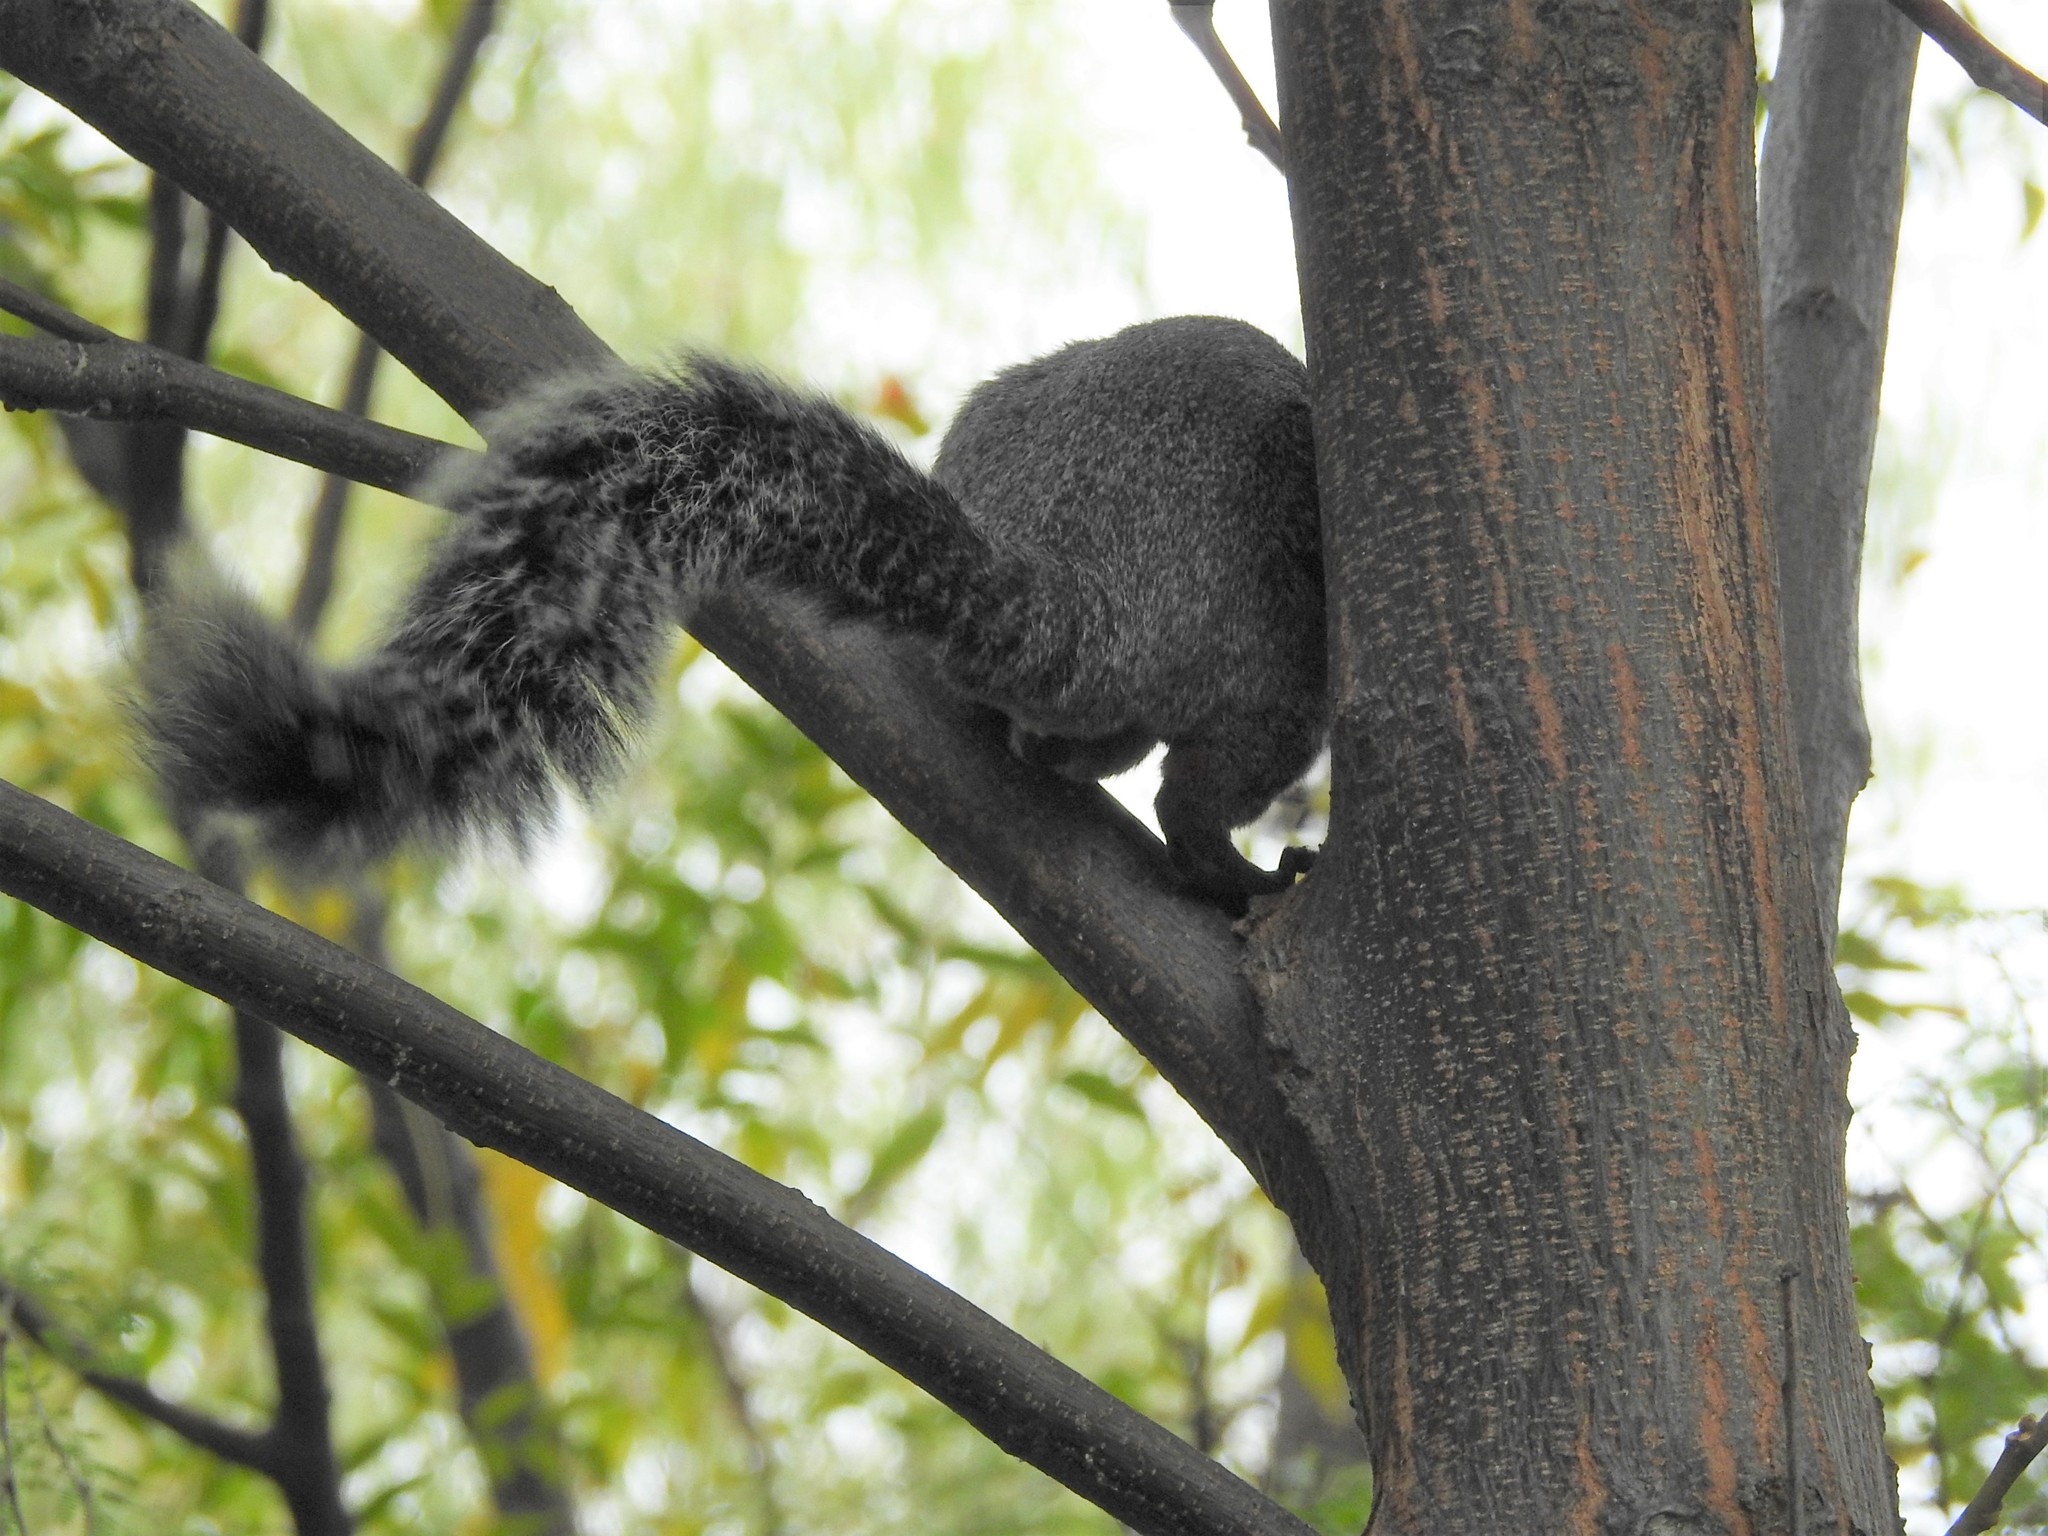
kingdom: Animalia
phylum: Chordata
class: Mammalia
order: Rodentia
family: Sciuridae
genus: Sciurus
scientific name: Sciurus aureogaster
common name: Red-bellied squirrel
